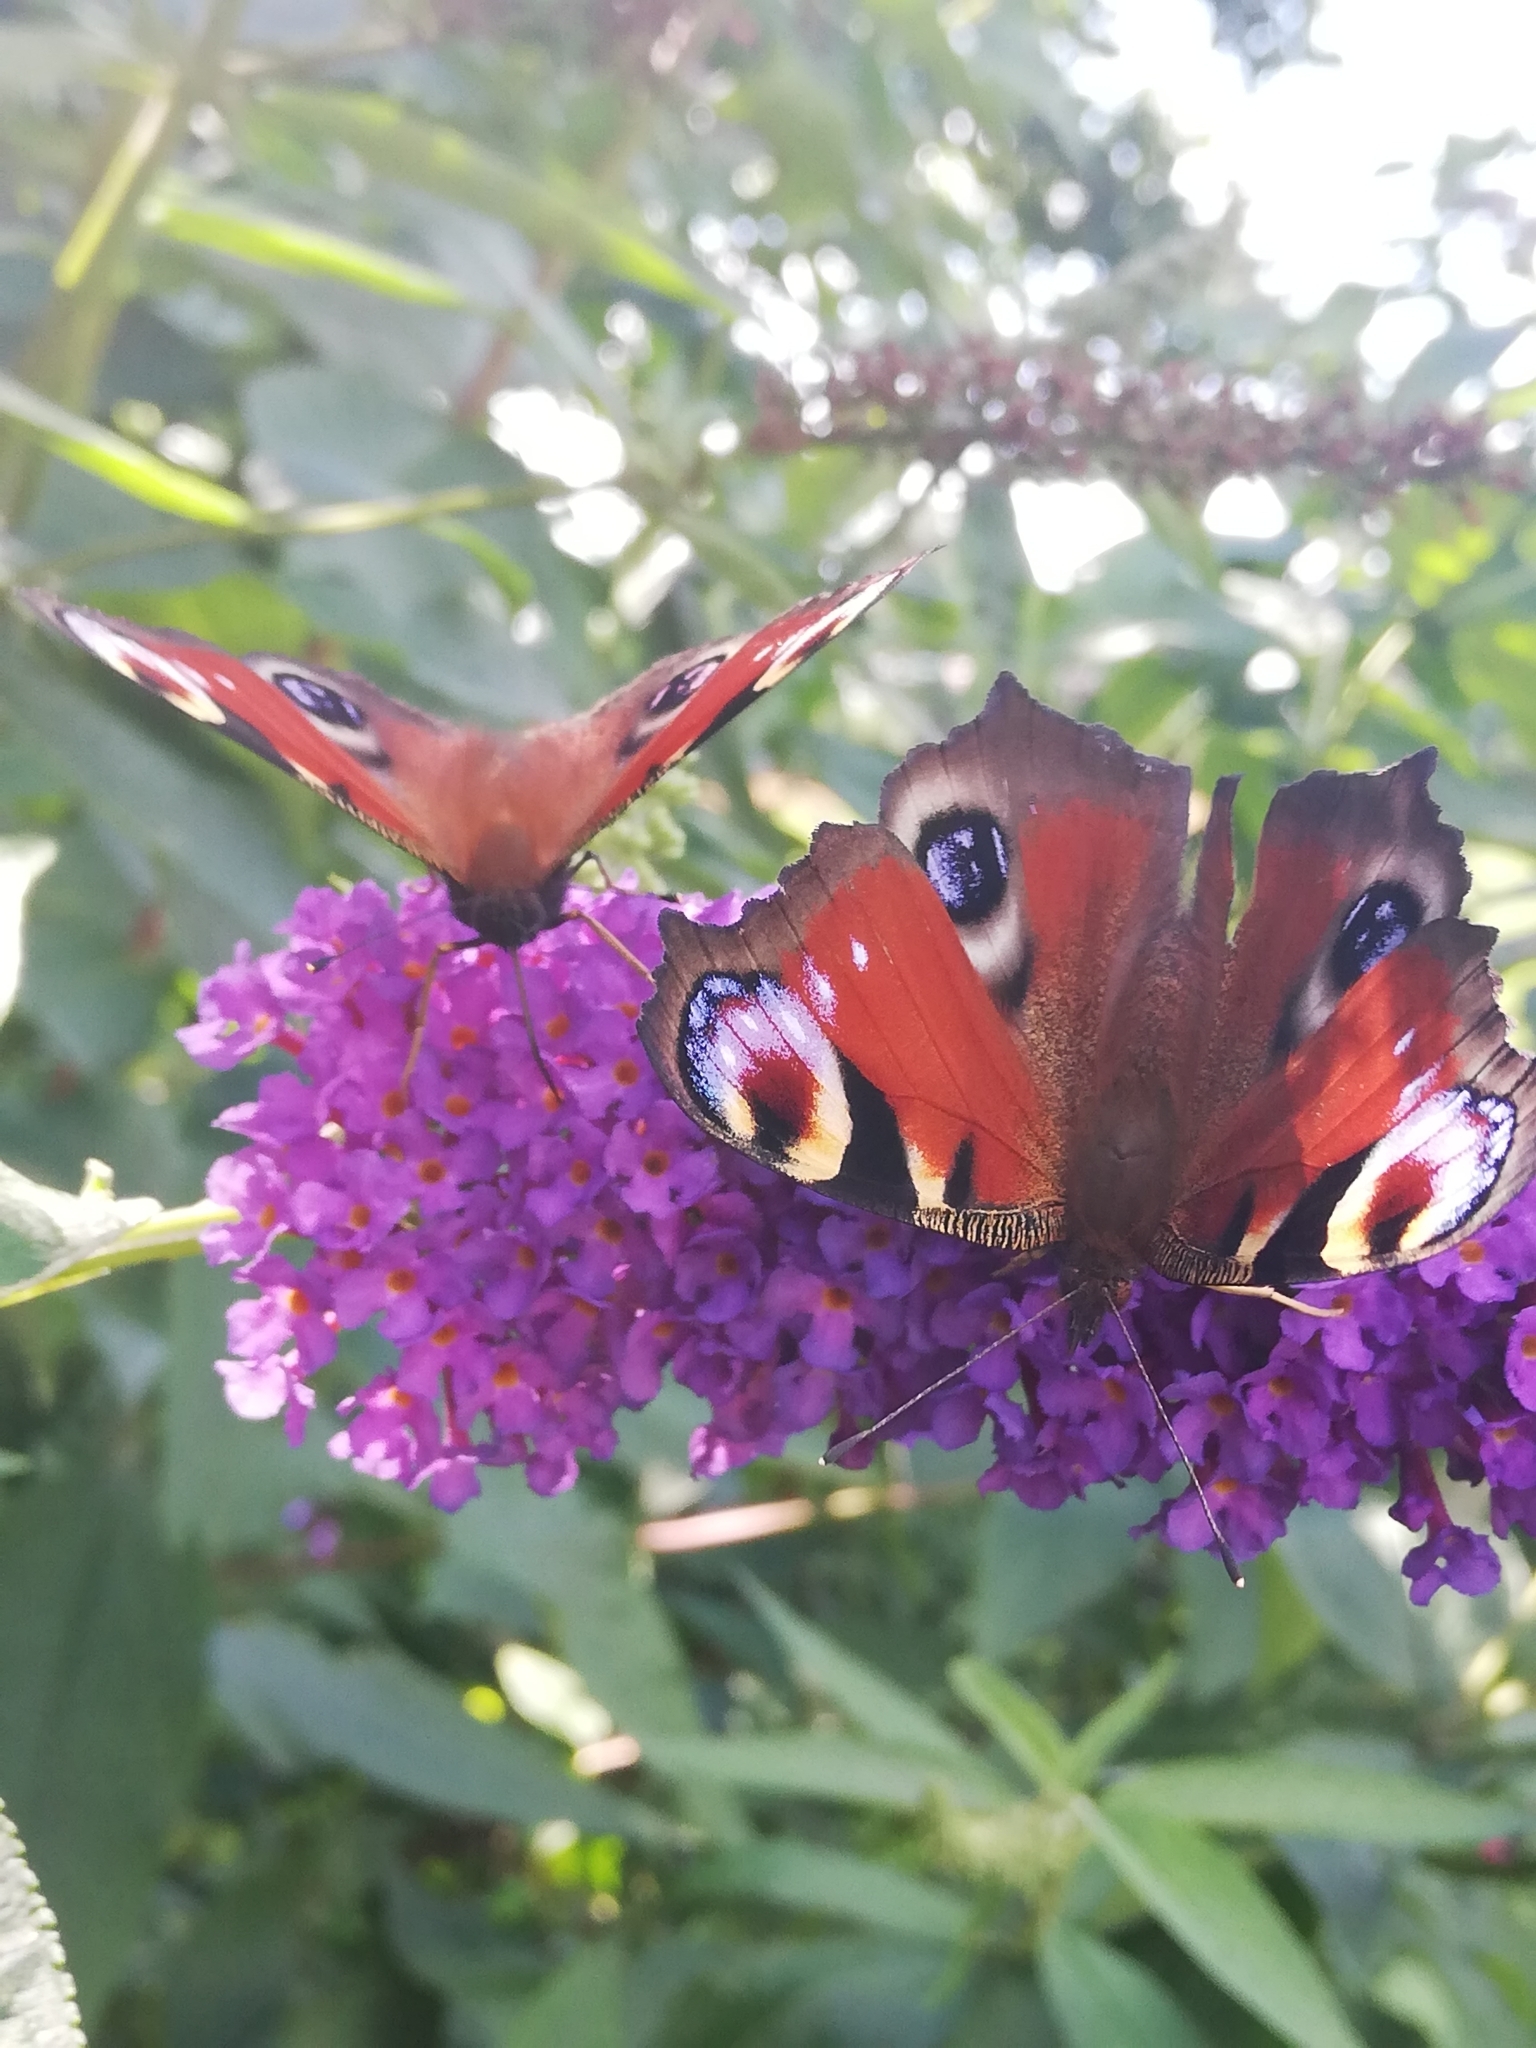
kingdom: Animalia
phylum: Arthropoda
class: Insecta
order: Lepidoptera
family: Nymphalidae
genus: Aglais
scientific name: Aglais io
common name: Peacock
